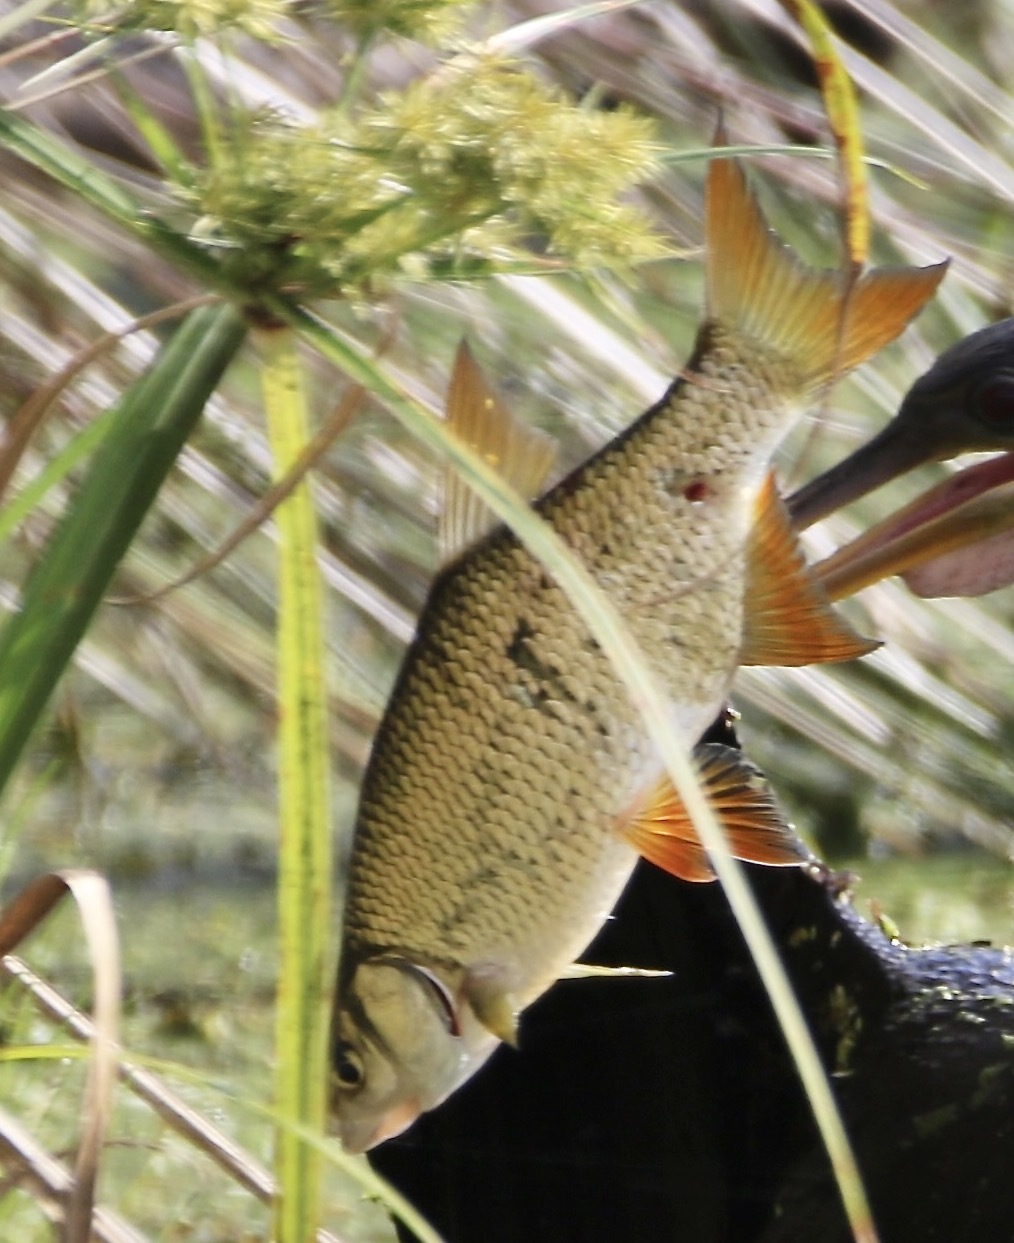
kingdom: Animalia
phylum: Chordata
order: Cypriniformes
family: Cyprinidae
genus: Notemigonus
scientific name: Notemigonus crysoleucas
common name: Golden shiner
